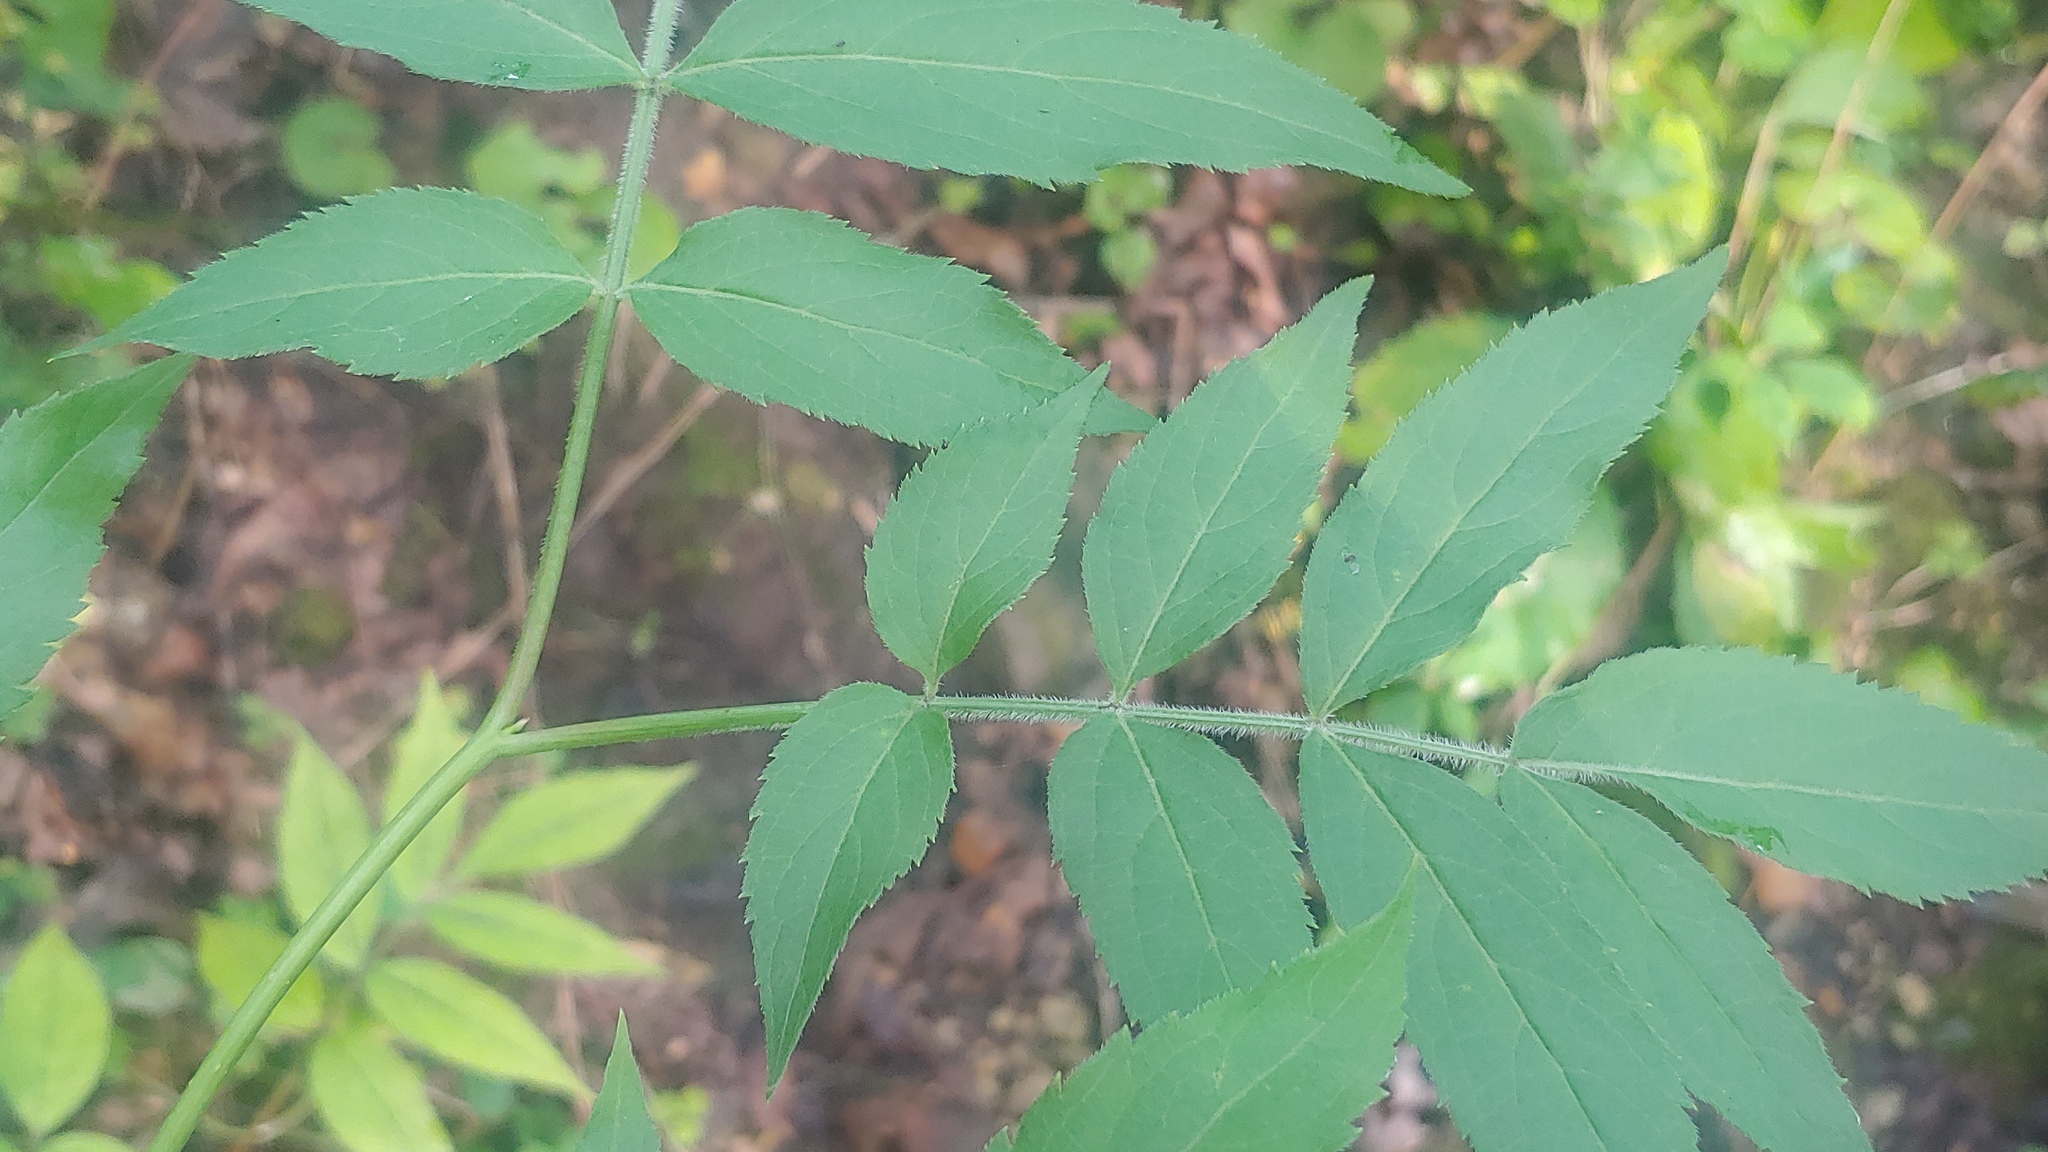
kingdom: Plantae
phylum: Tracheophyta
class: Magnoliopsida
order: Dipsacales
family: Viburnaceae
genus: Sambucus
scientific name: Sambucus racemosa
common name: Red-berried elder
